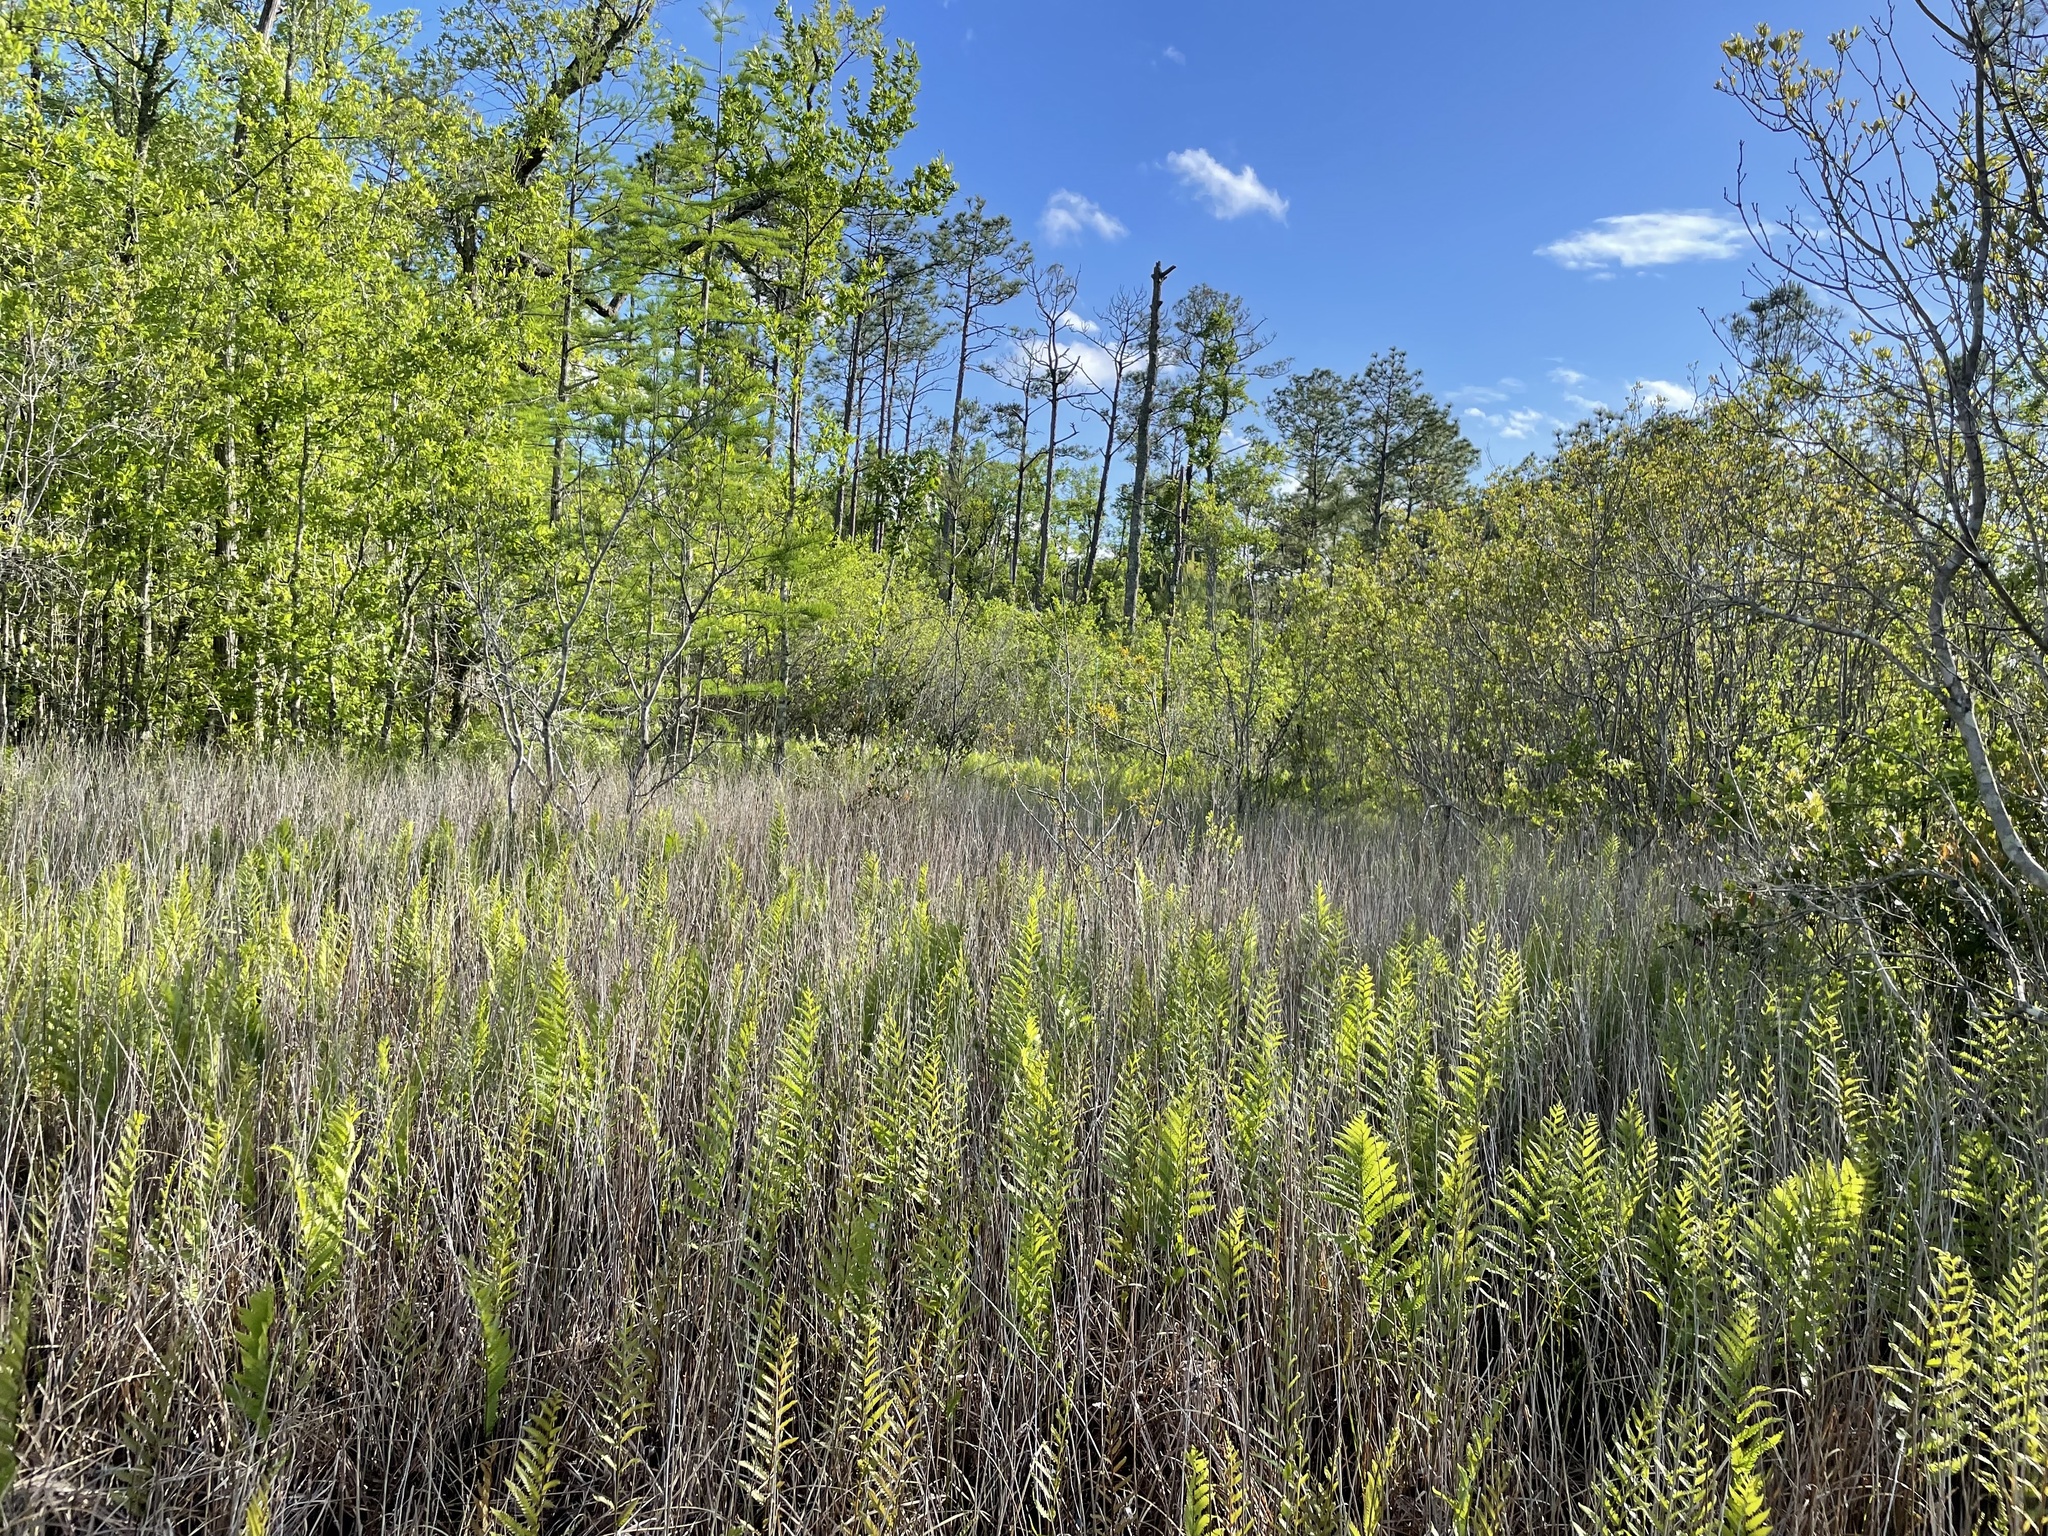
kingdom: Plantae
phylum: Tracheophyta
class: Polypodiopsida
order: Polypodiales
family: Blechnaceae
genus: Anchistea
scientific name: Anchistea virginica
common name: Virginia chain fern
